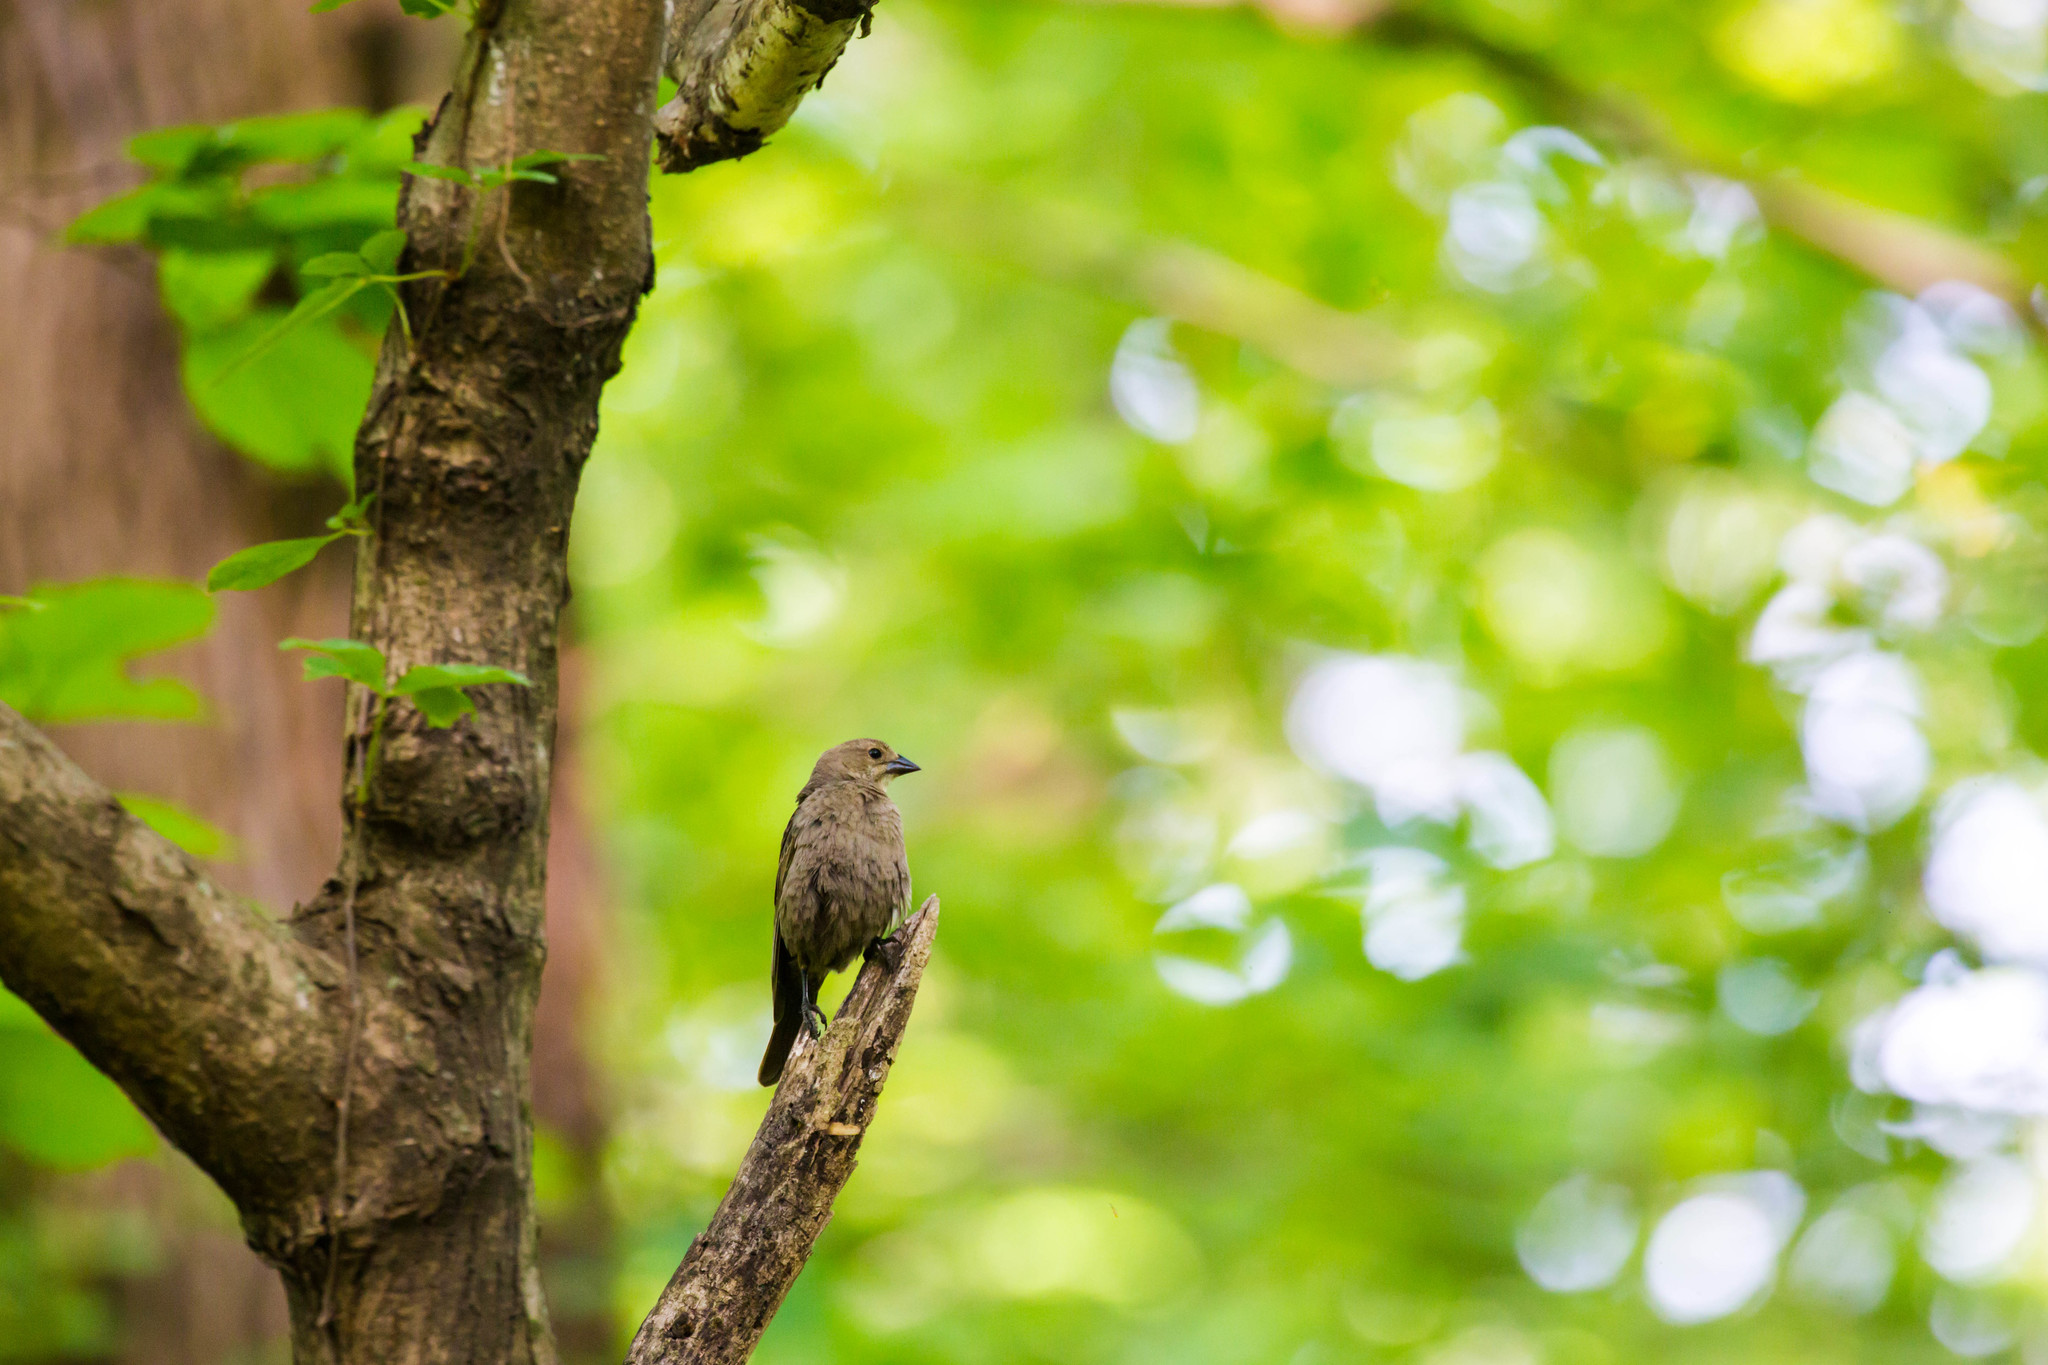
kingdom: Animalia
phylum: Chordata
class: Aves
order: Passeriformes
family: Icteridae
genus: Molothrus
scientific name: Molothrus ater
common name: Brown-headed cowbird
